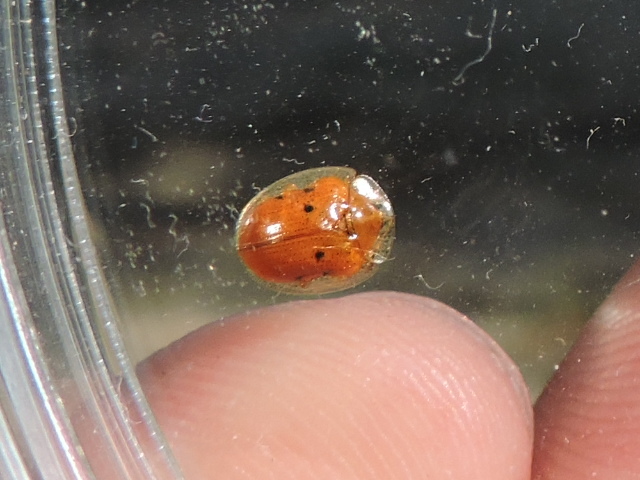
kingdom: Animalia
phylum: Arthropoda
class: Insecta
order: Coleoptera
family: Chrysomelidae
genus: Charidotella
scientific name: Charidotella sexpunctata
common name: Golden tortoise beetle
